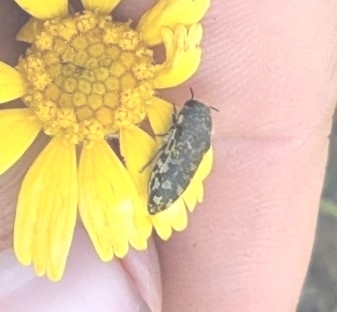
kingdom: Animalia
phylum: Arthropoda
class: Insecta
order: Coleoptera
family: Buprestidae
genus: Acmaeodera
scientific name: Acmaeodera variegata
